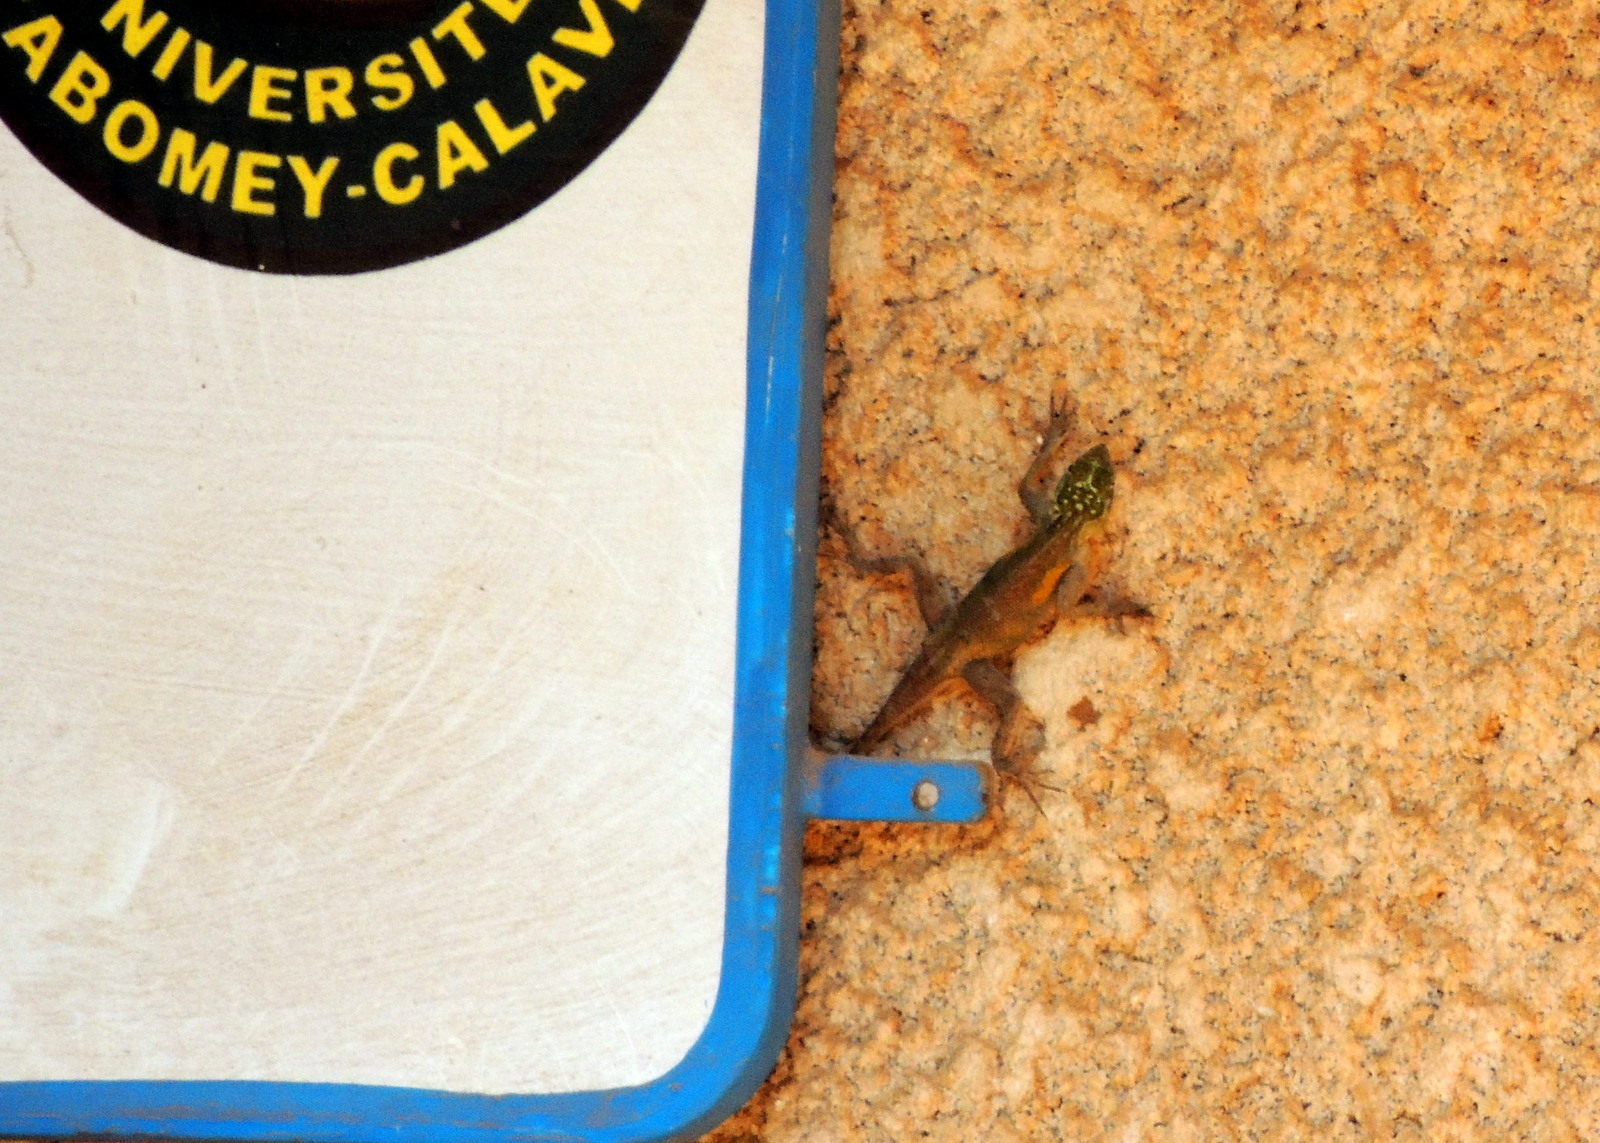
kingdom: Animalia
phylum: Chordata
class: Squamata
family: Agamidae
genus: Agama
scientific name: Agama agama
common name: Common agama
